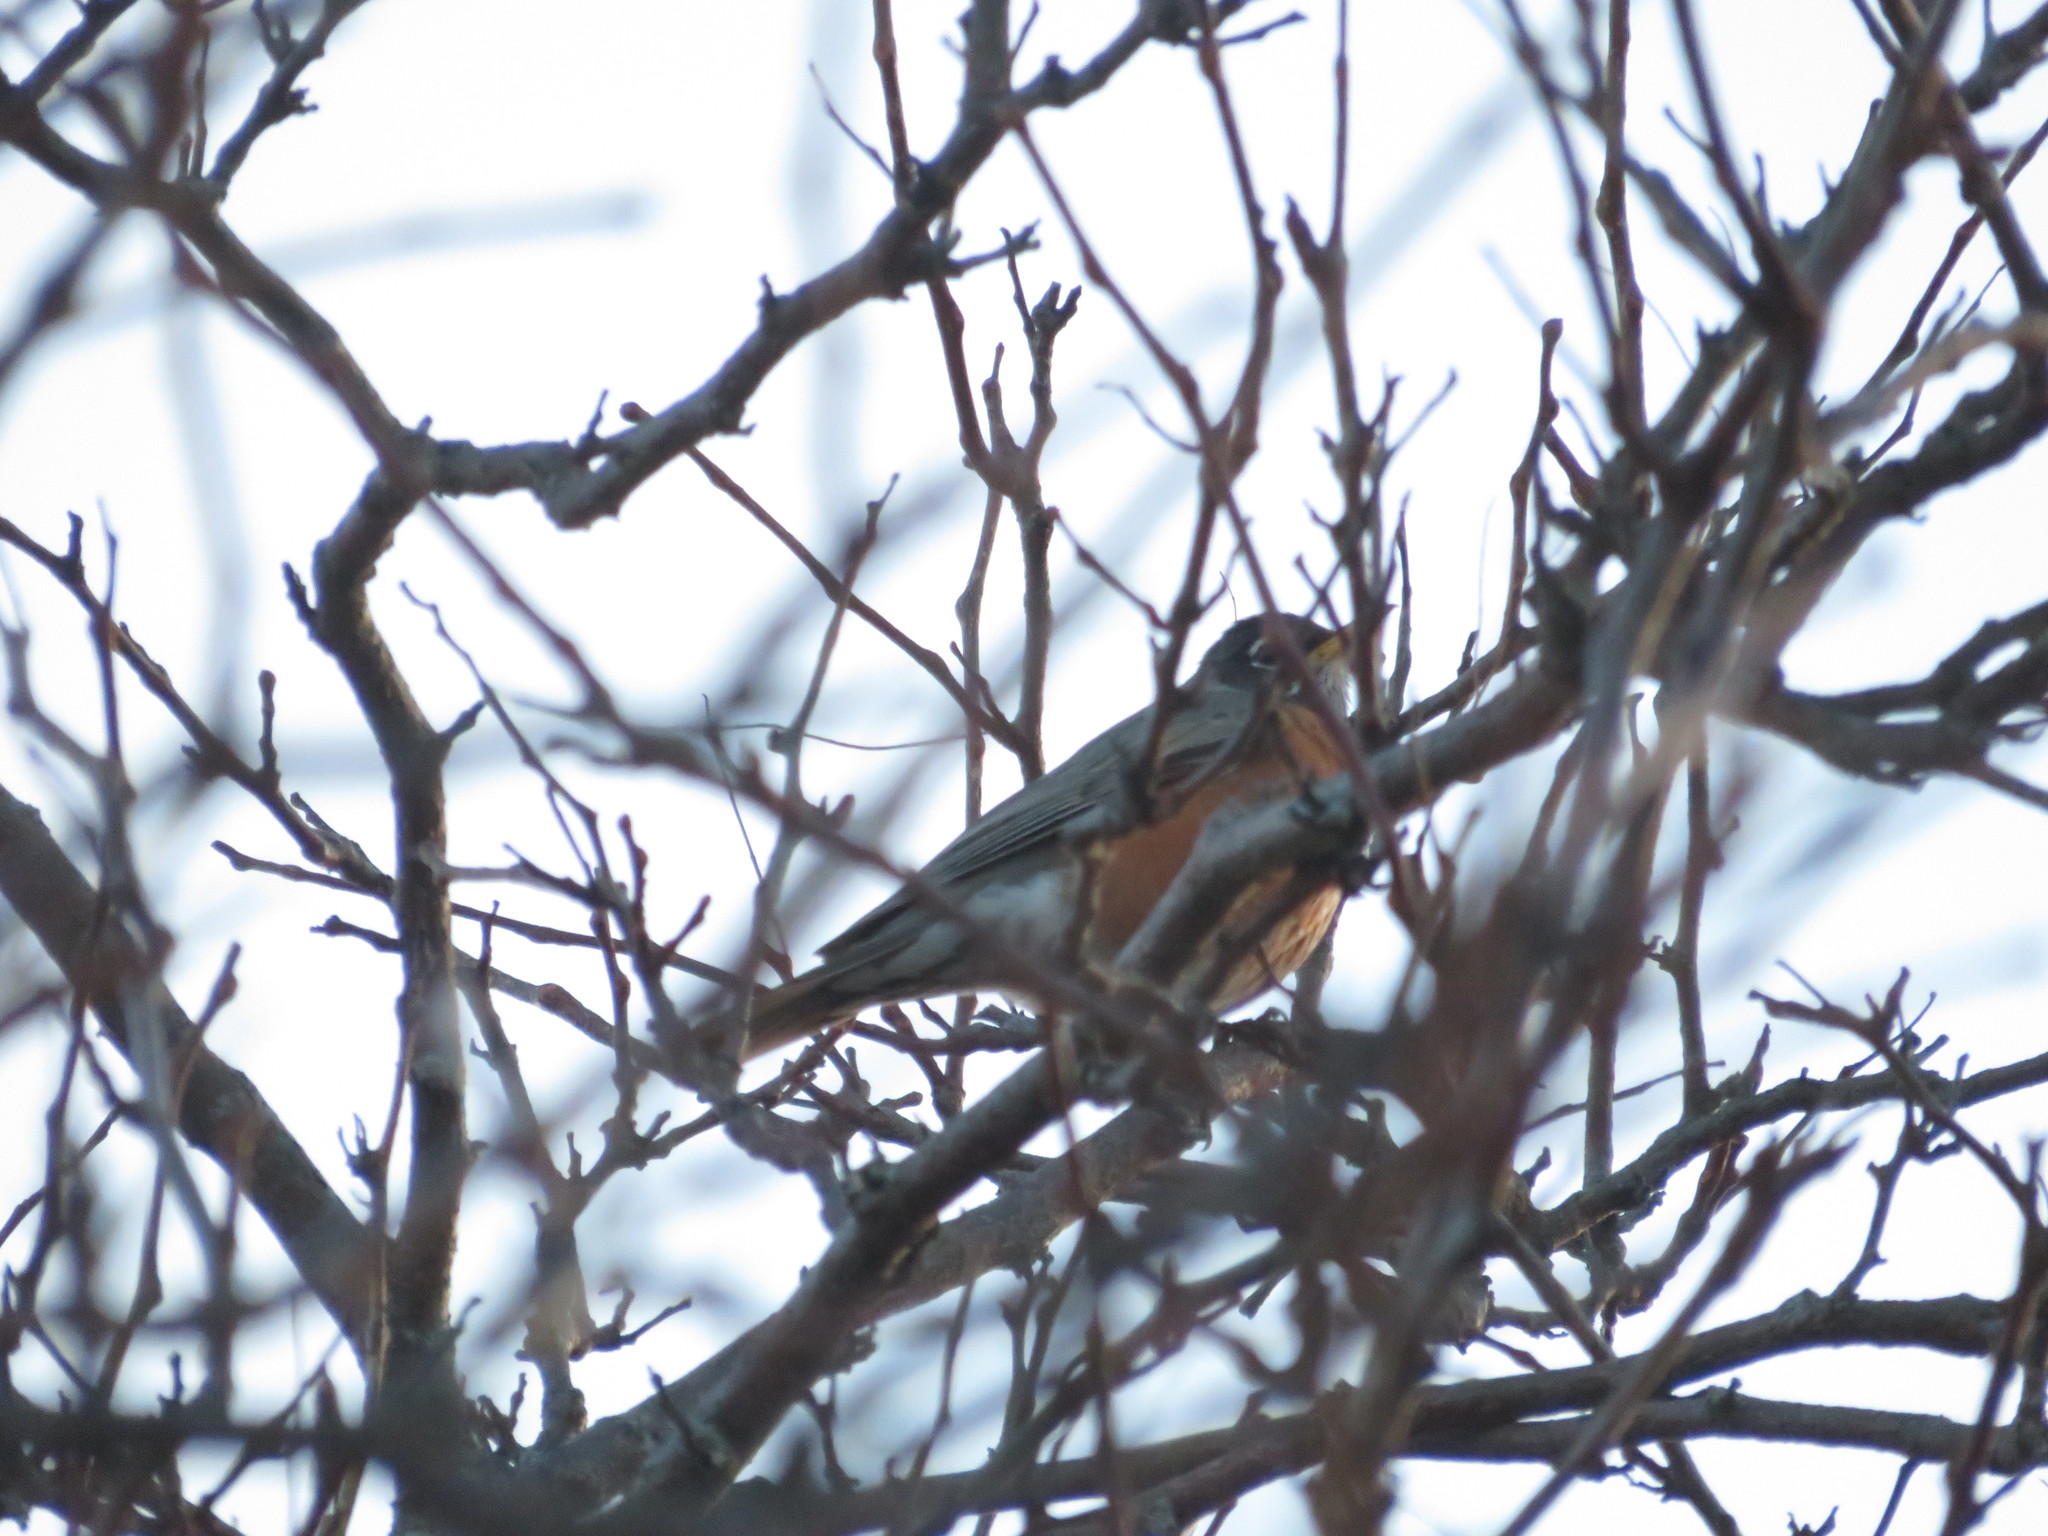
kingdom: Animalia
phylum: Chordata
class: Aves
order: Passeriformes
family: Turdidae
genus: Turdus
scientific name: Turdus migratorius
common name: American robin
